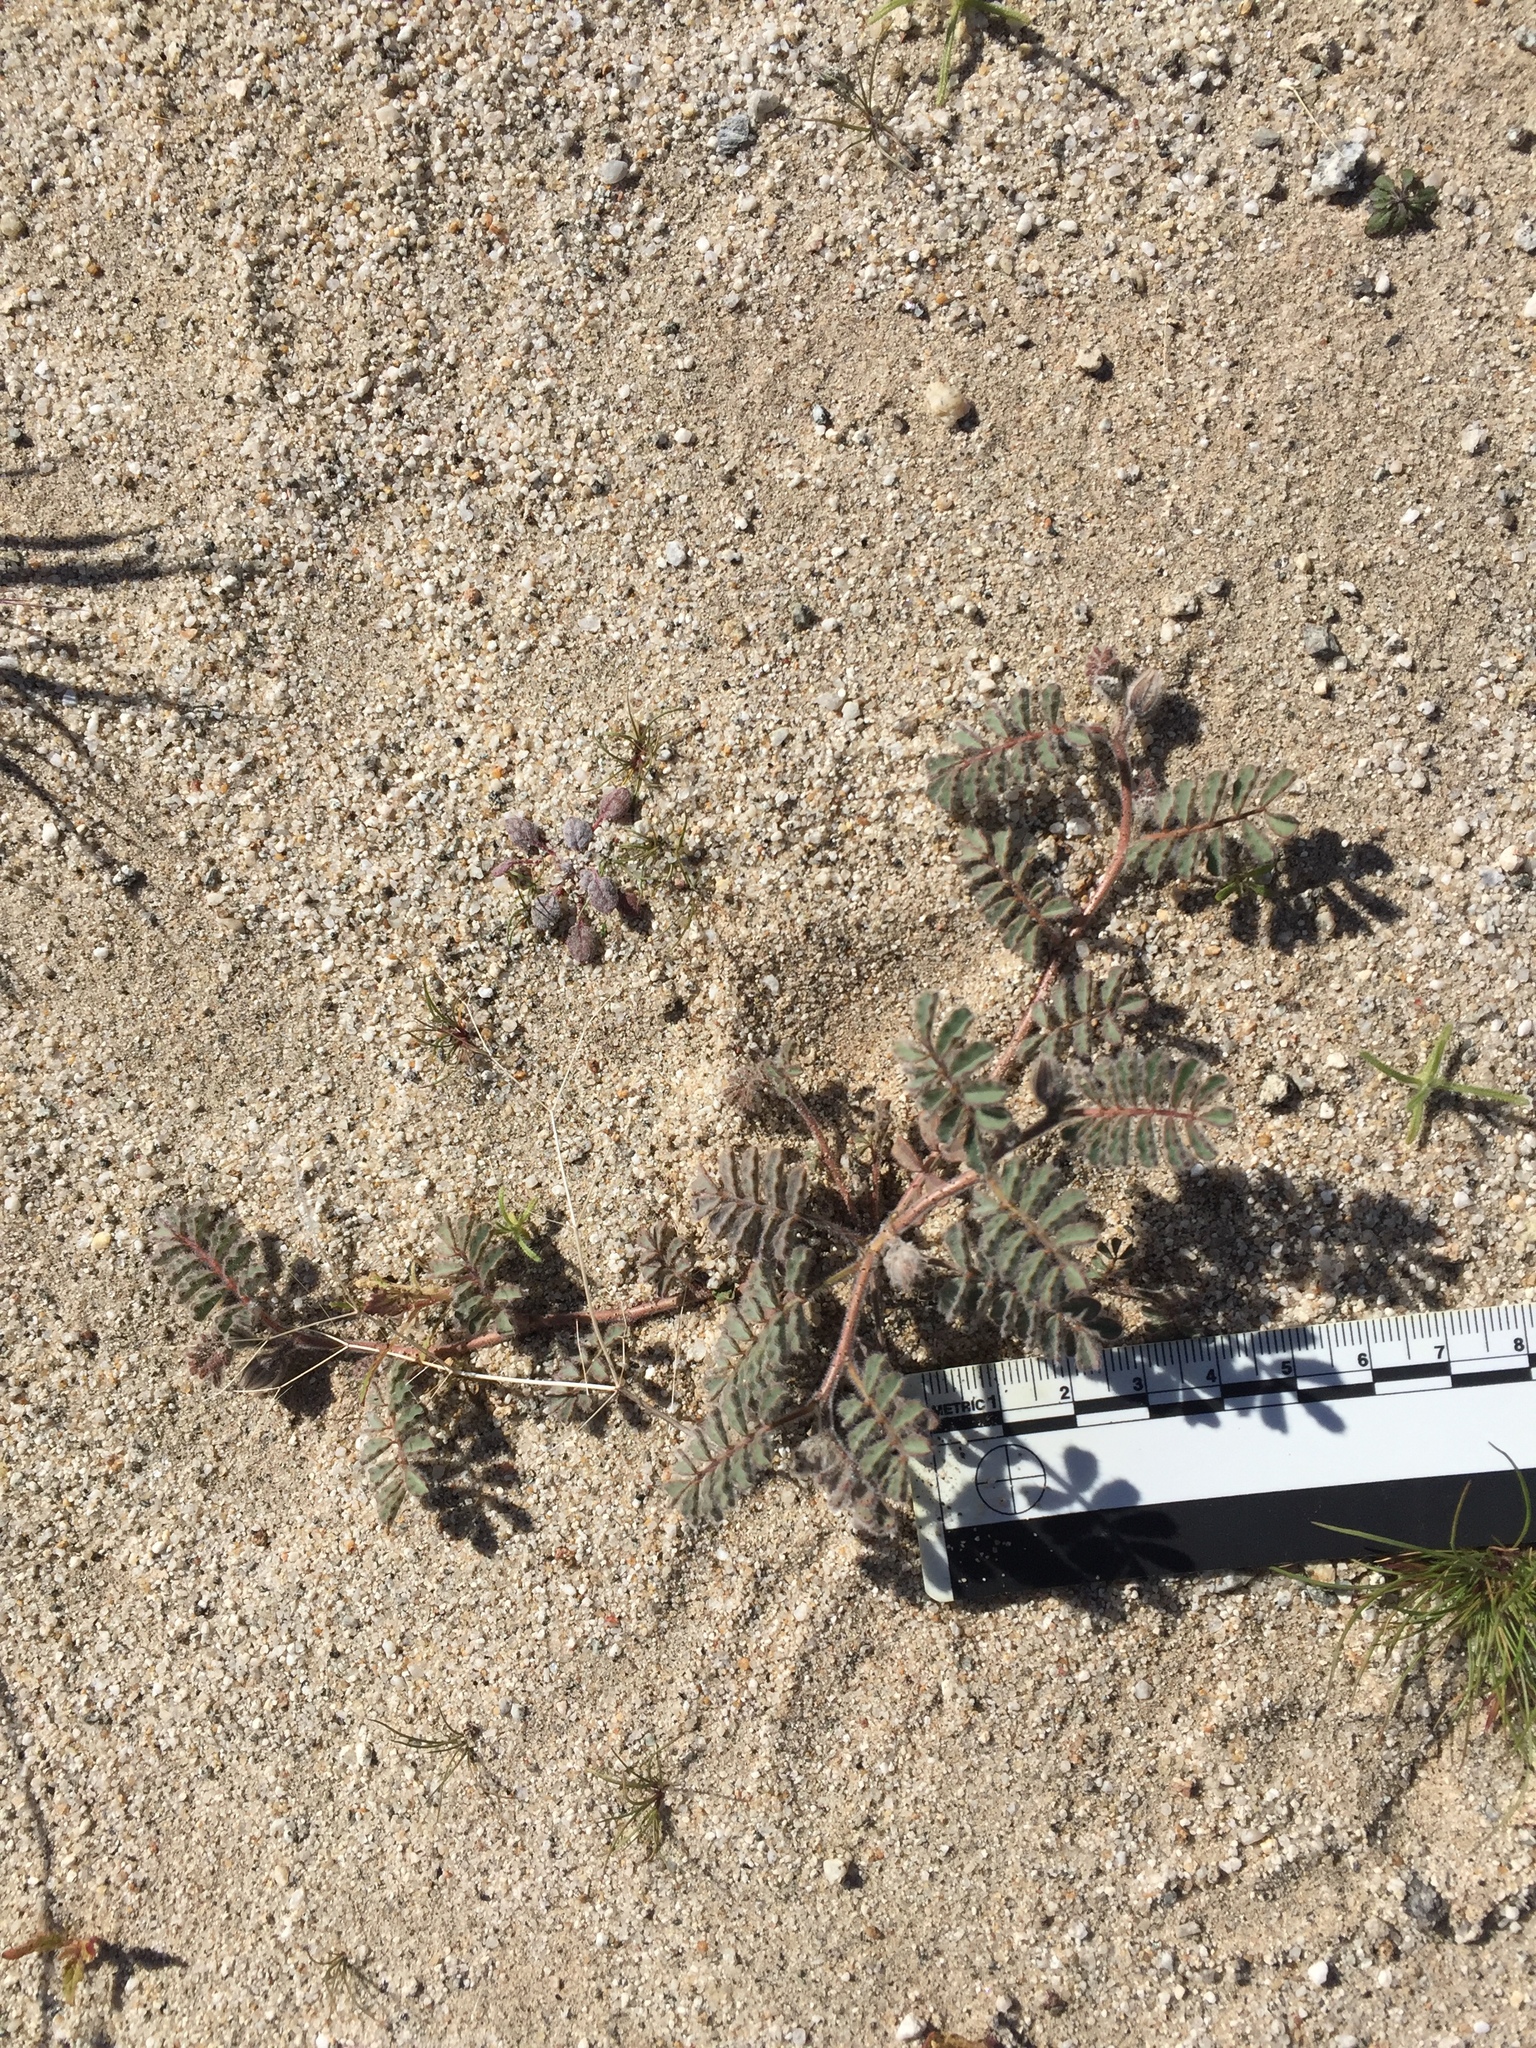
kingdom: Plantae
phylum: Tracheophyta
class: Magnoliopsida
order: Fabales
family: Fabaceae
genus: Dalea
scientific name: Dalea mollissima
